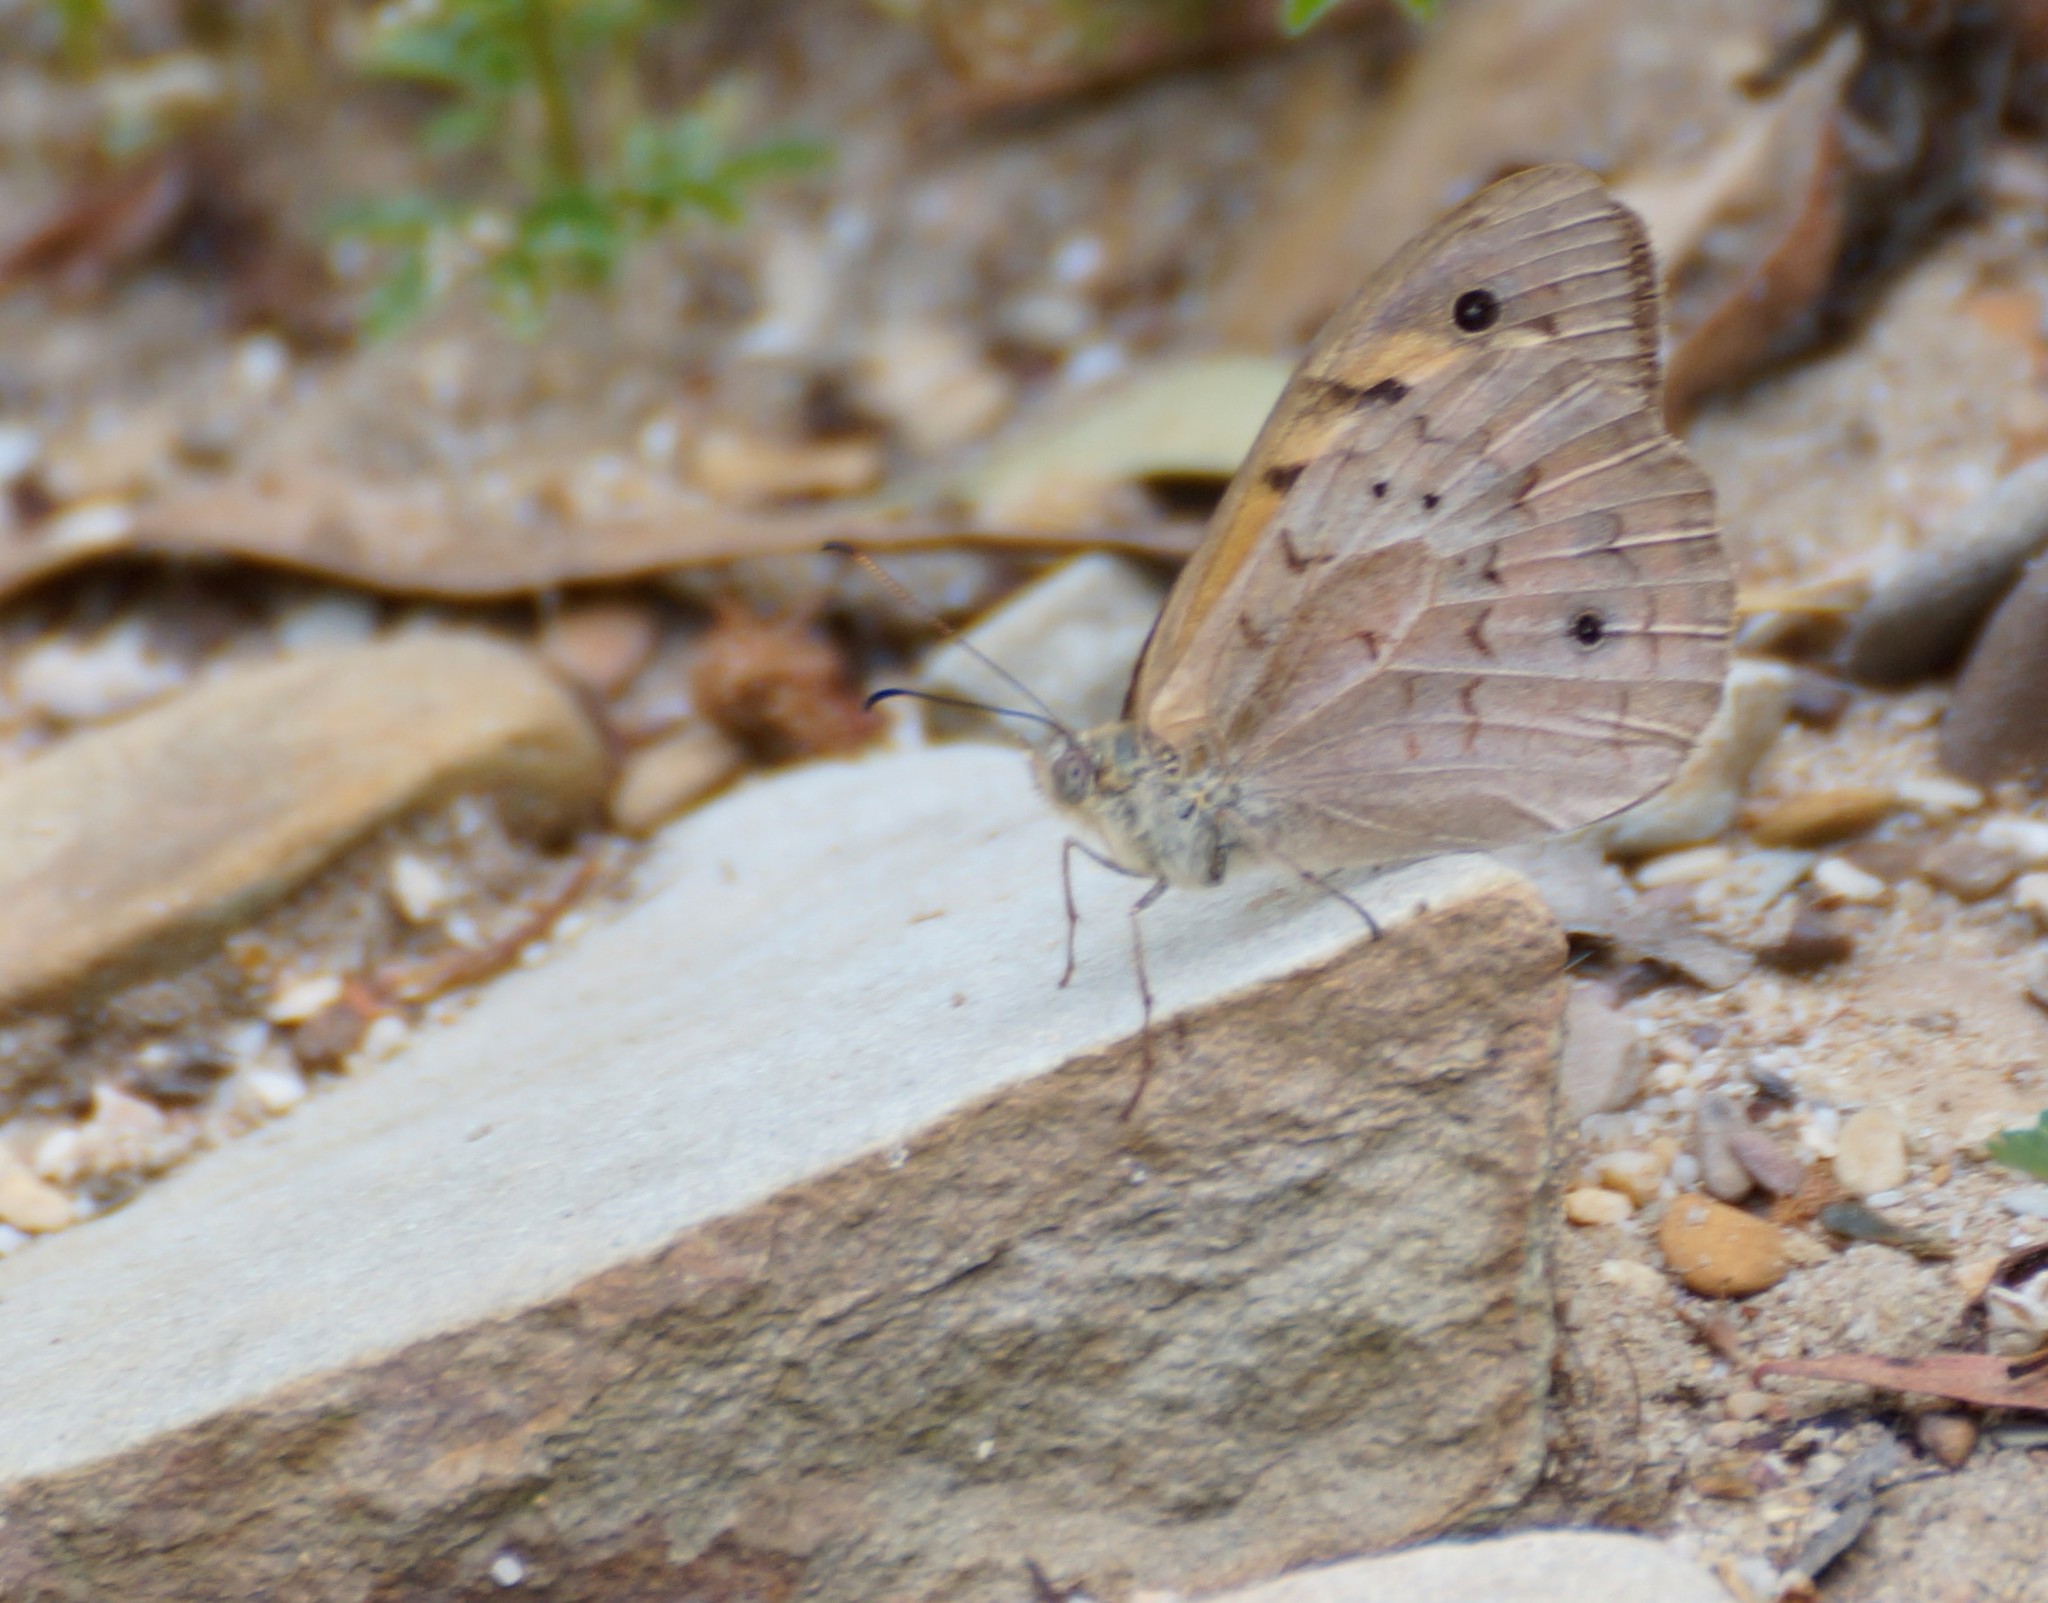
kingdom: Animalia
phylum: Arthropoda
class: Insecta
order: Lepidoptera
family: Nymphalidae
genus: Heteronympha
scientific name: Heteronympha merope
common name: Common brown
